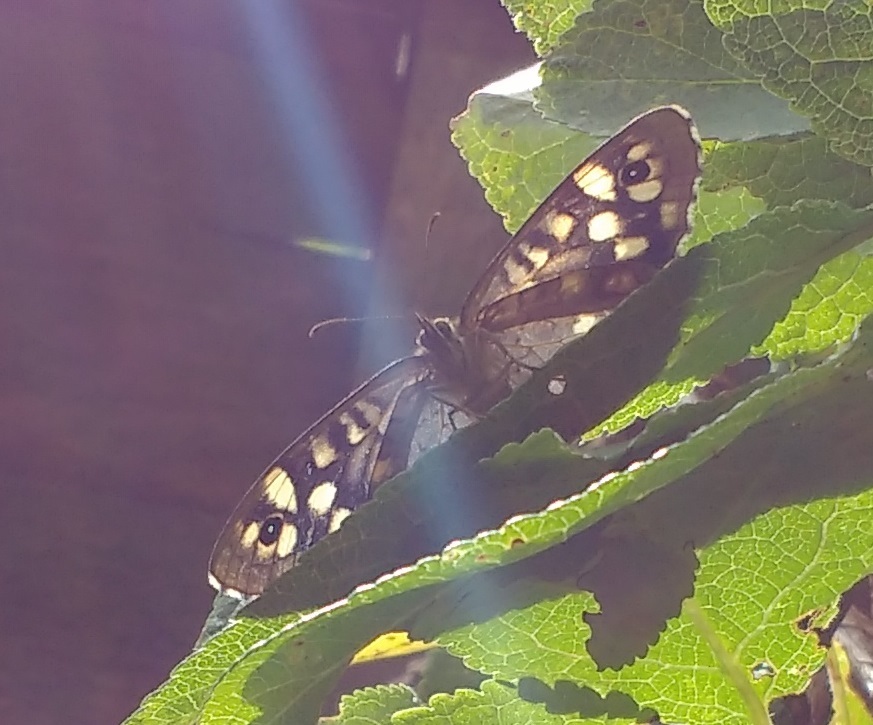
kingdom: Animalia
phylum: Arthropoda
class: Insecta
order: Lepidoptera
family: Nymphalidae
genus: Pararge
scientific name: Pararge aegeria
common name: Speckled wood
